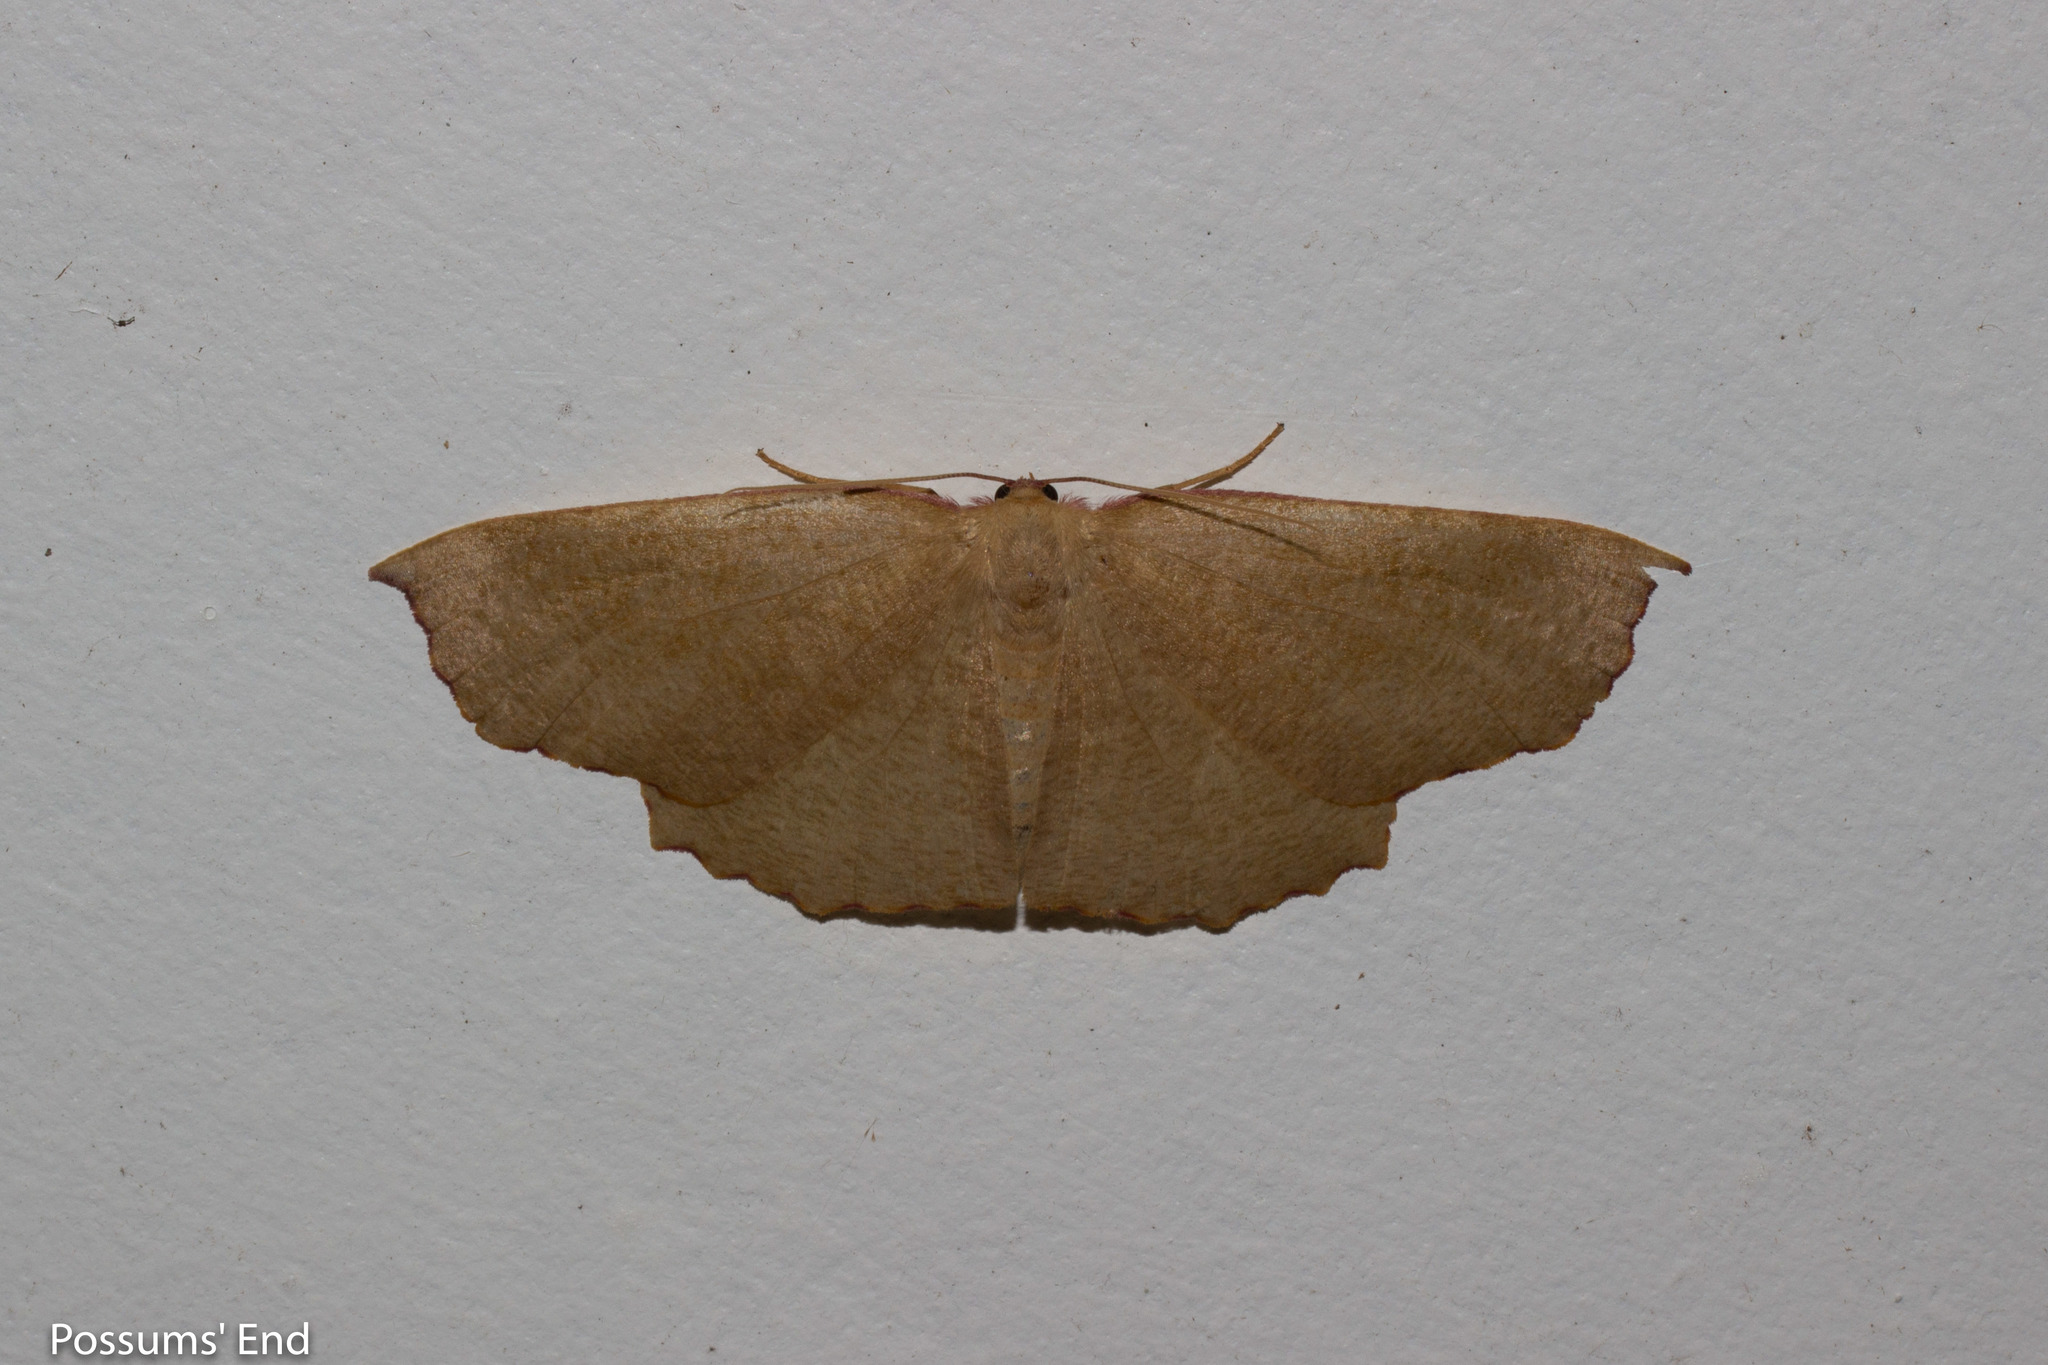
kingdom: Animalia
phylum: Arthropoda
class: Insecta
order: Lepidoptera
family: Geometridae
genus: Xyridacma
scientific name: Xyridacma alectoraria
